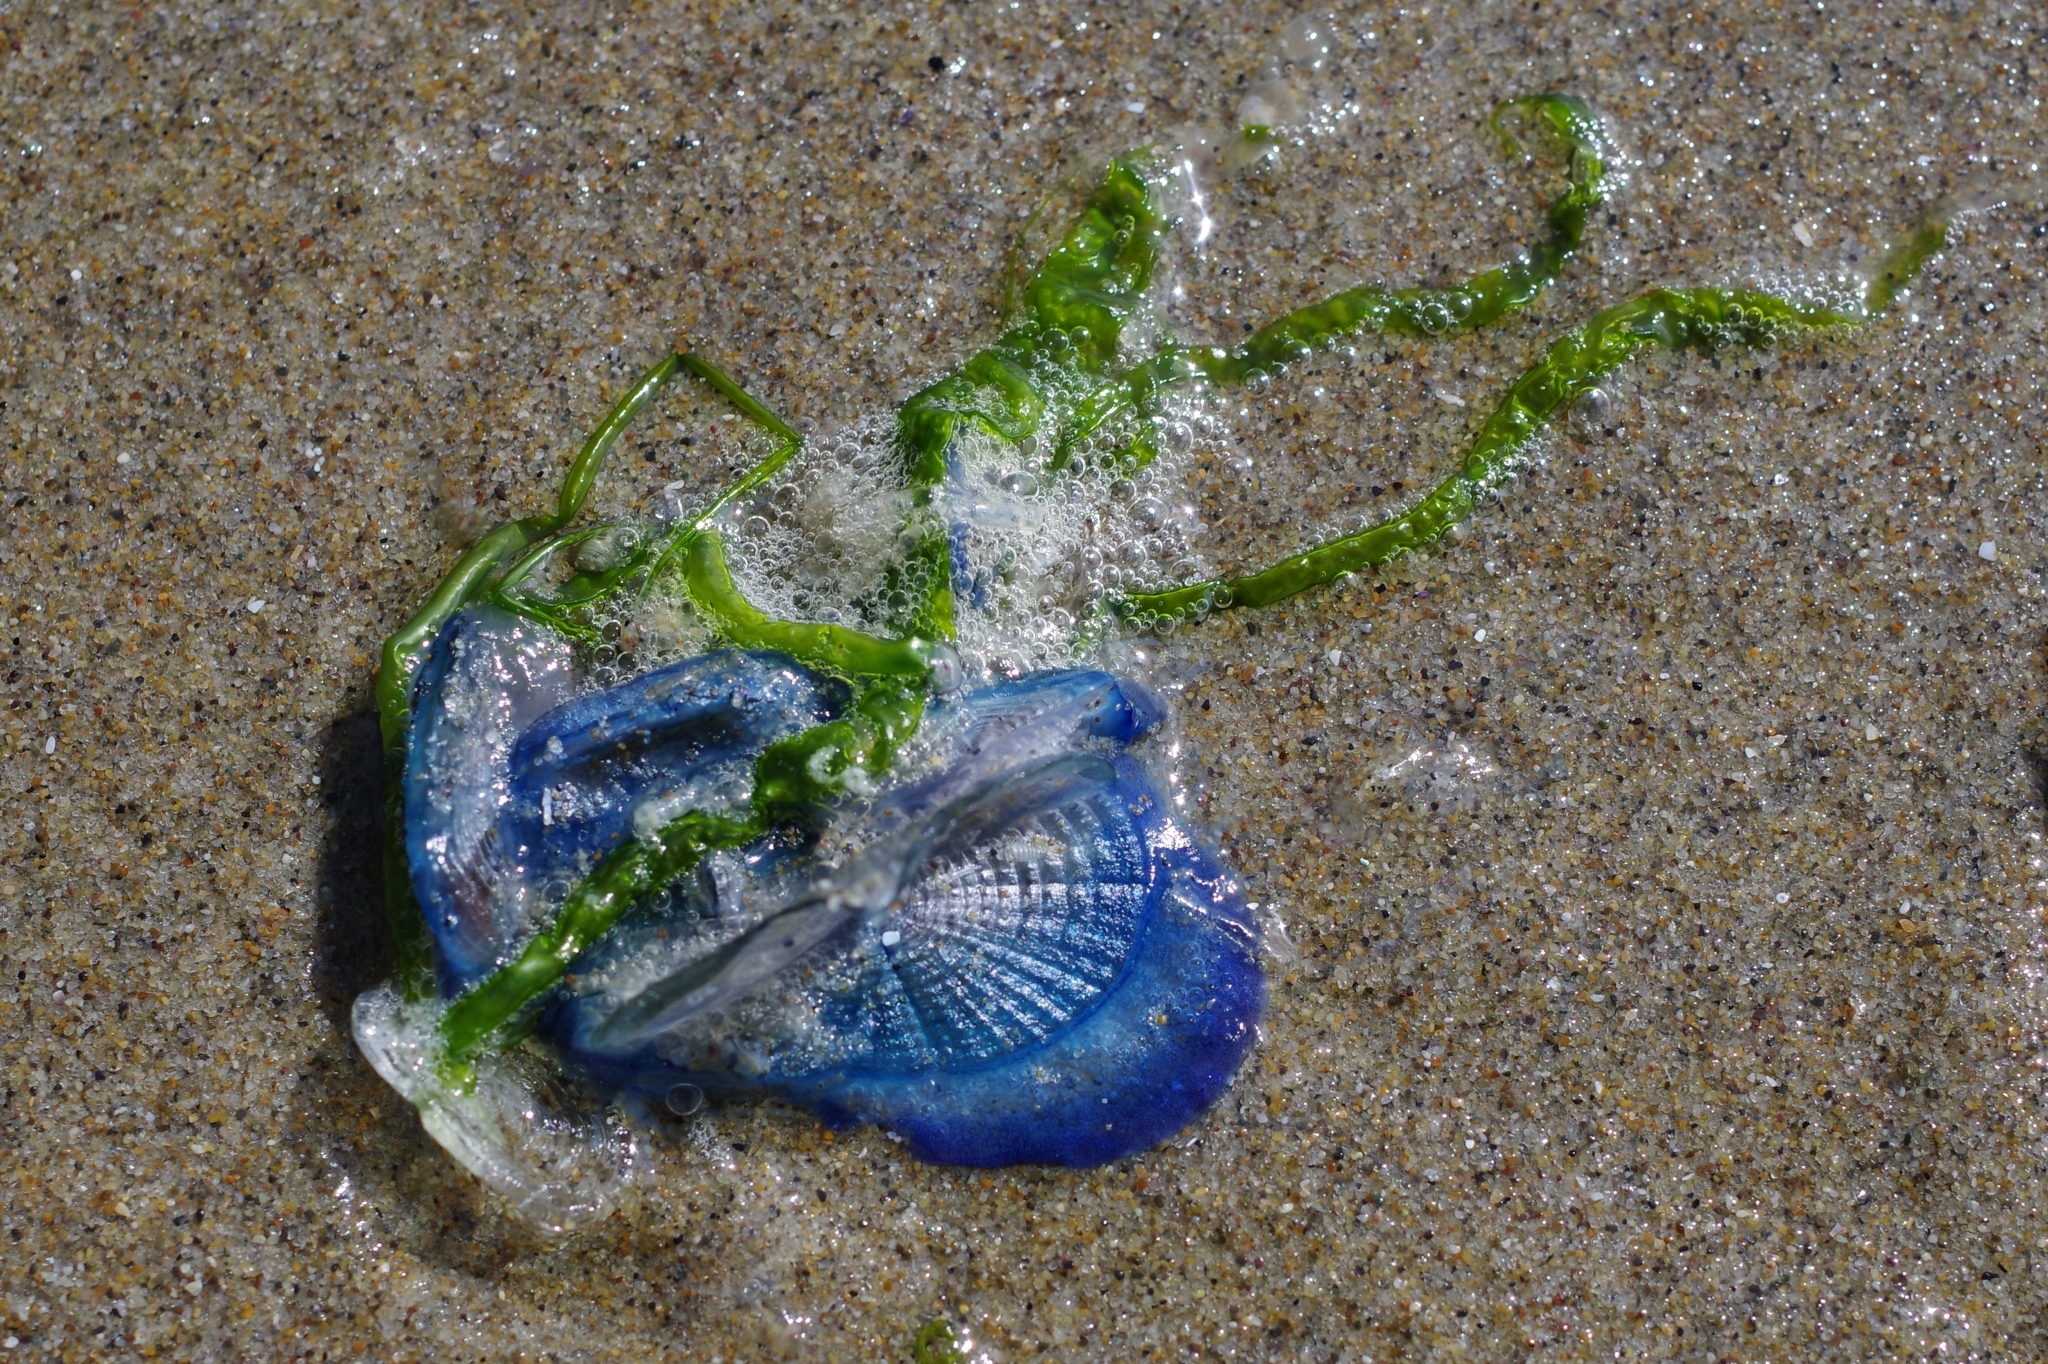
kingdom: Animalia
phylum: Cnidaria
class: Hydrozoa
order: Anthoathecata
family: Porpitidae
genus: Velella
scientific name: Velella velella
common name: By-the-wind-sailor
